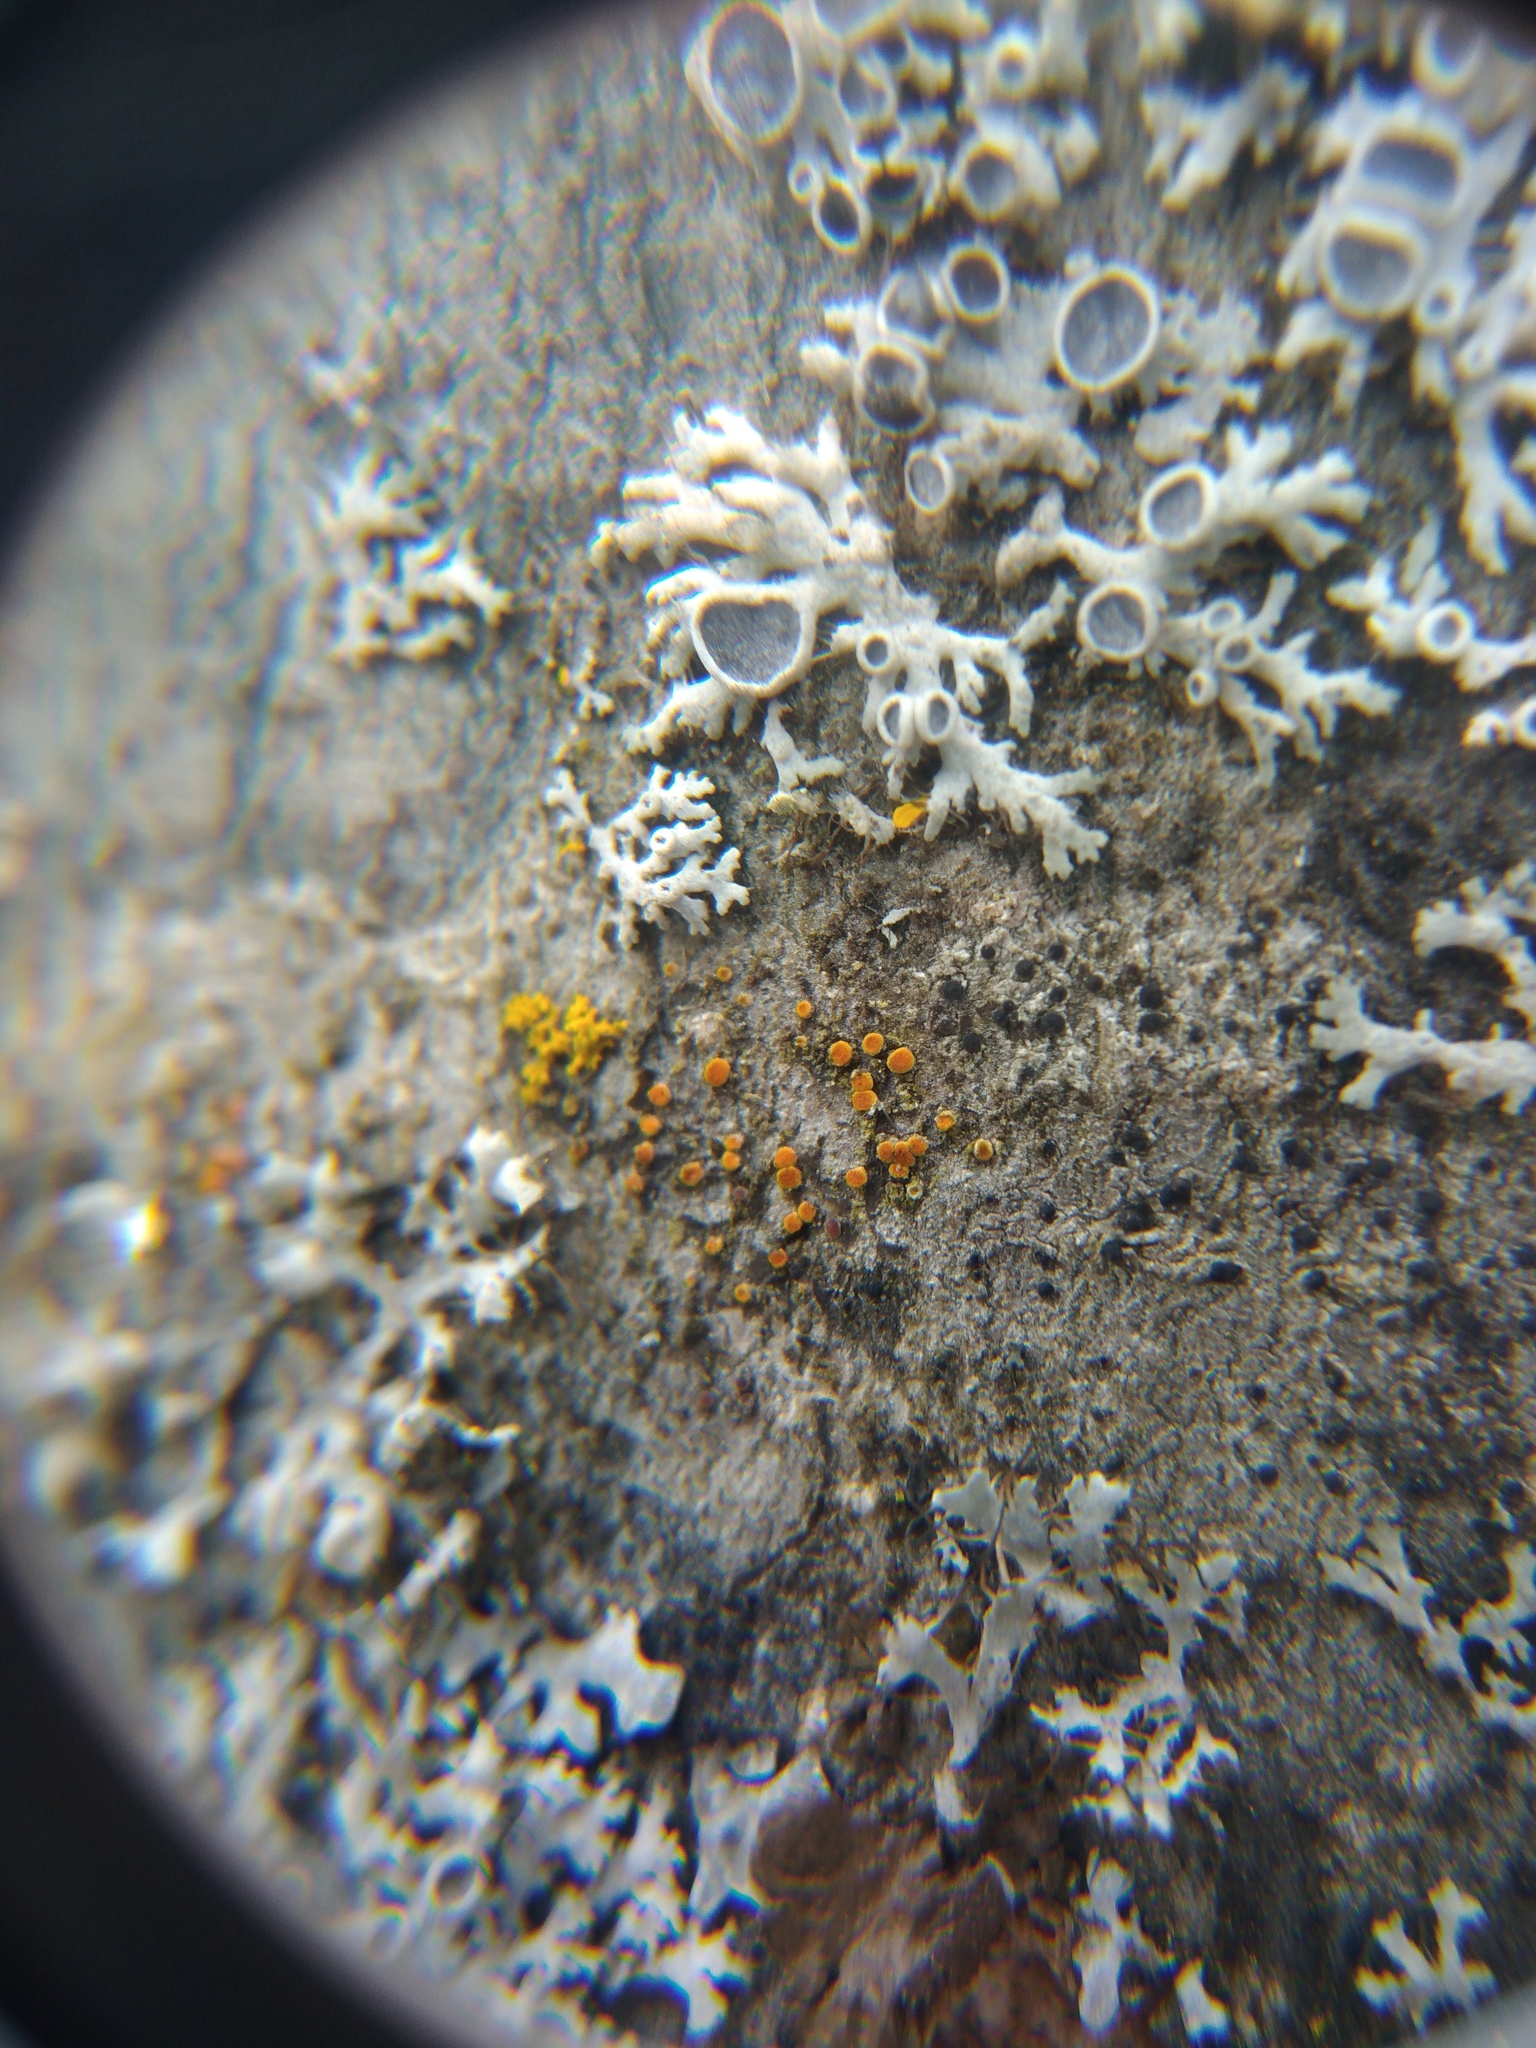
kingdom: Fungi
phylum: Ascomycota
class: Lecanoromycetes
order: Teloschistales
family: Teloschistaceae
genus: Athallia
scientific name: Athallia pyracea
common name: Flaming firedot lichen
